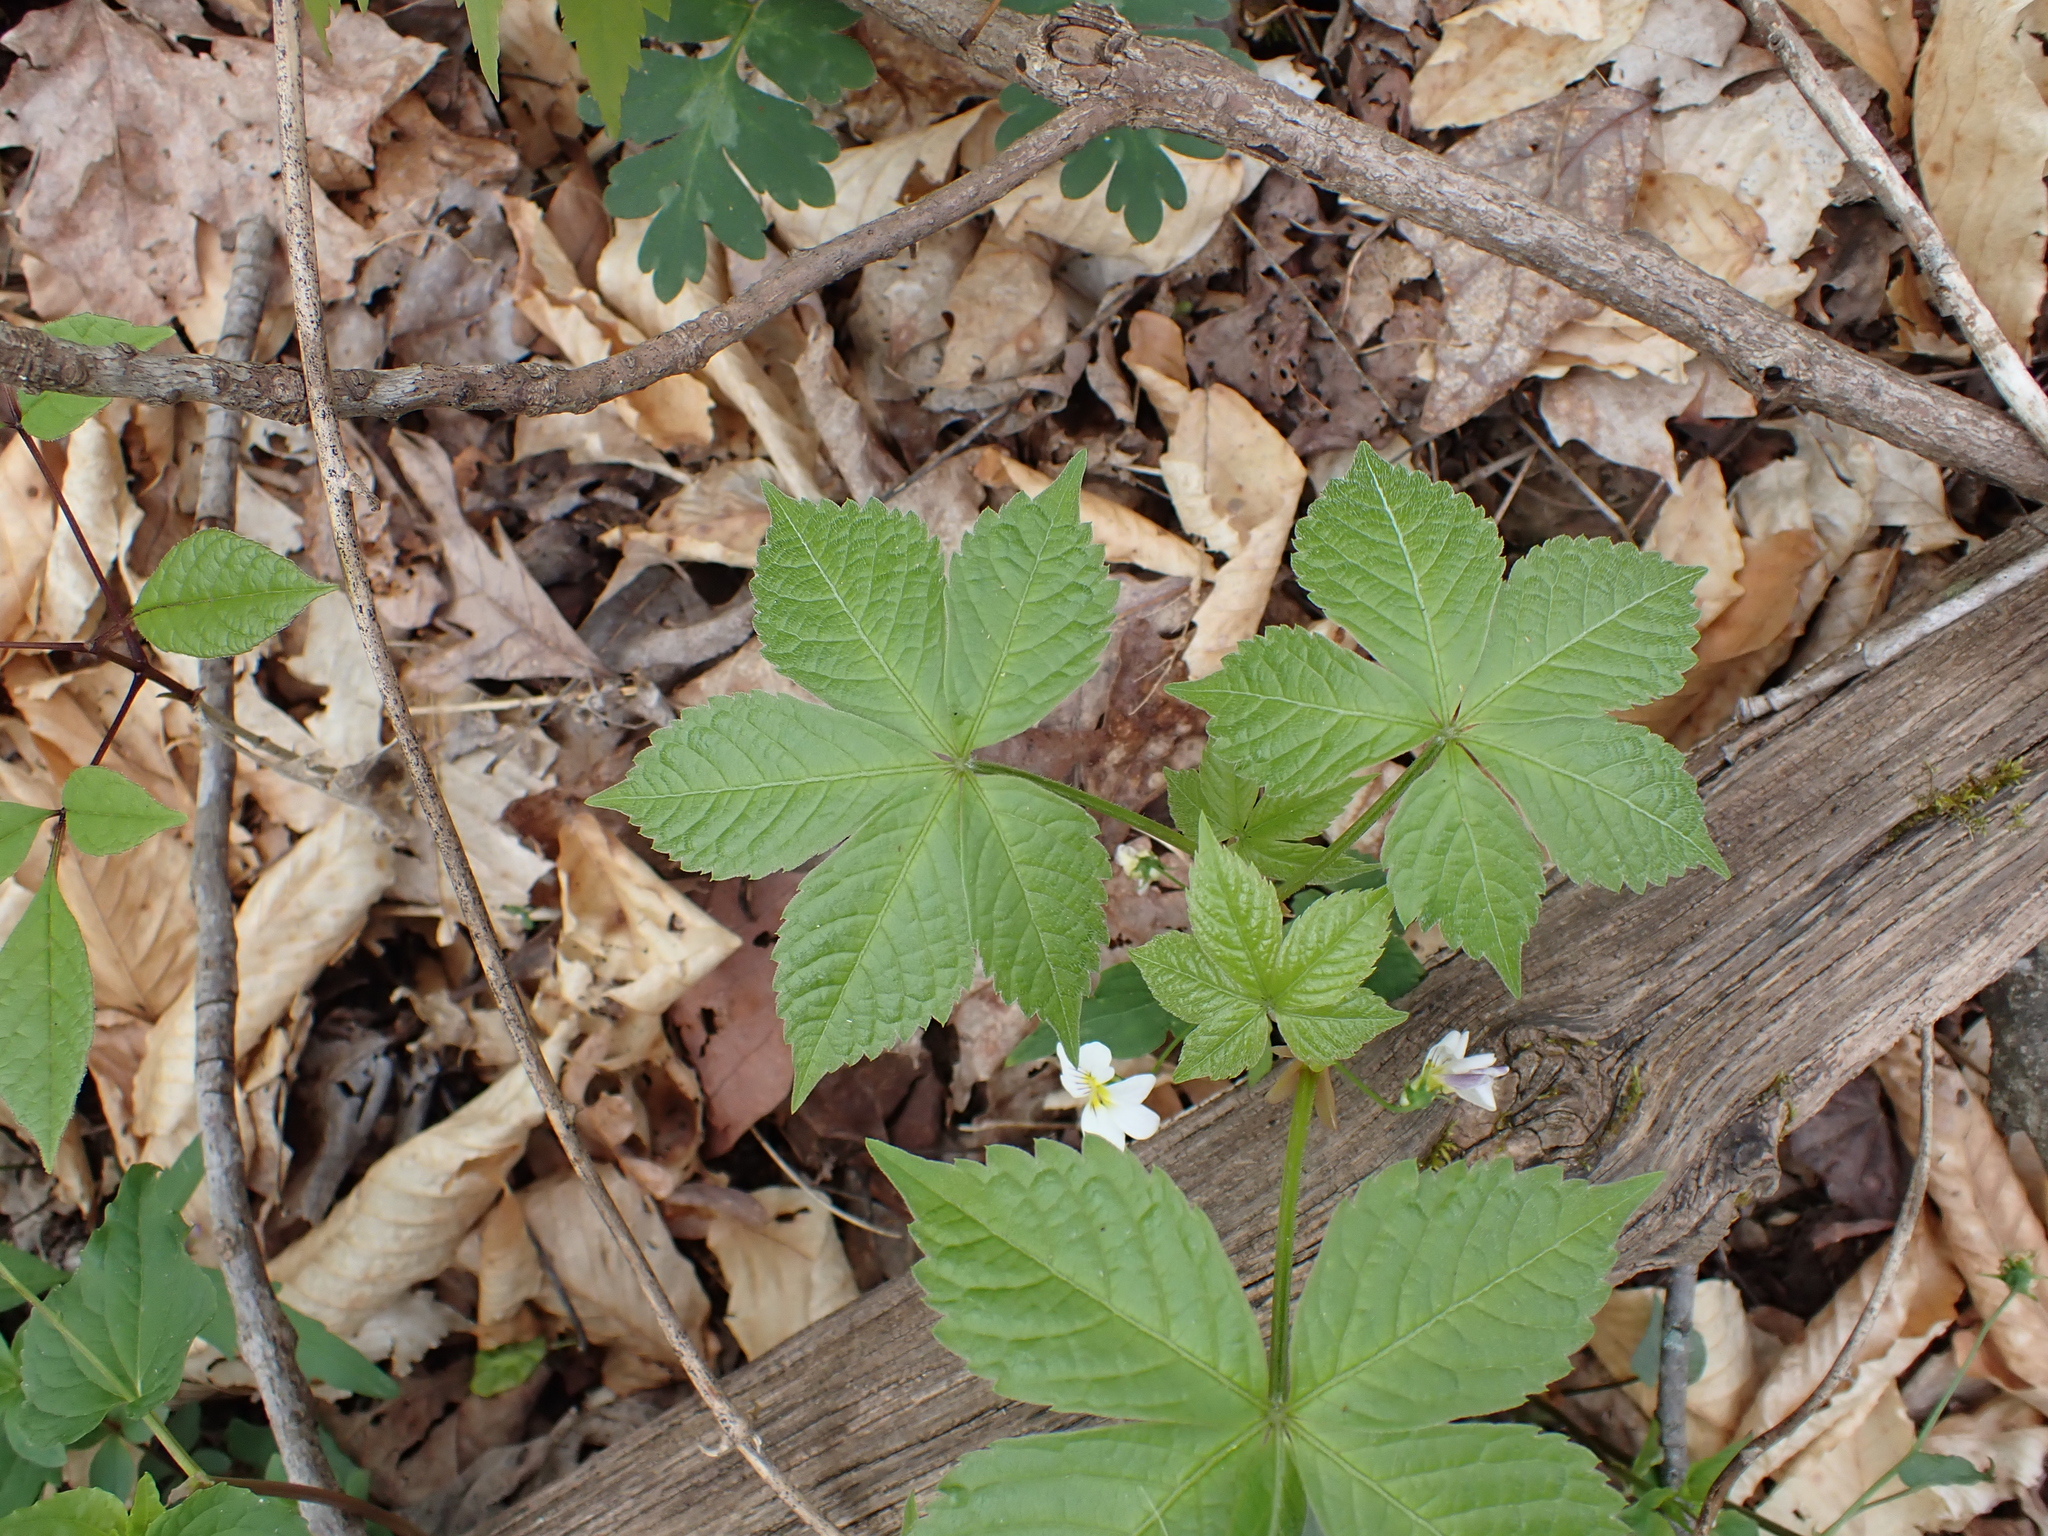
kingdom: Plantae
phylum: Tracheophyta
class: Magnoliopsida
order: Vitales
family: Vitaceae
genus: Parthenocissus
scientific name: Parthenocissus quinquefolia
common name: Virginia-creeper
